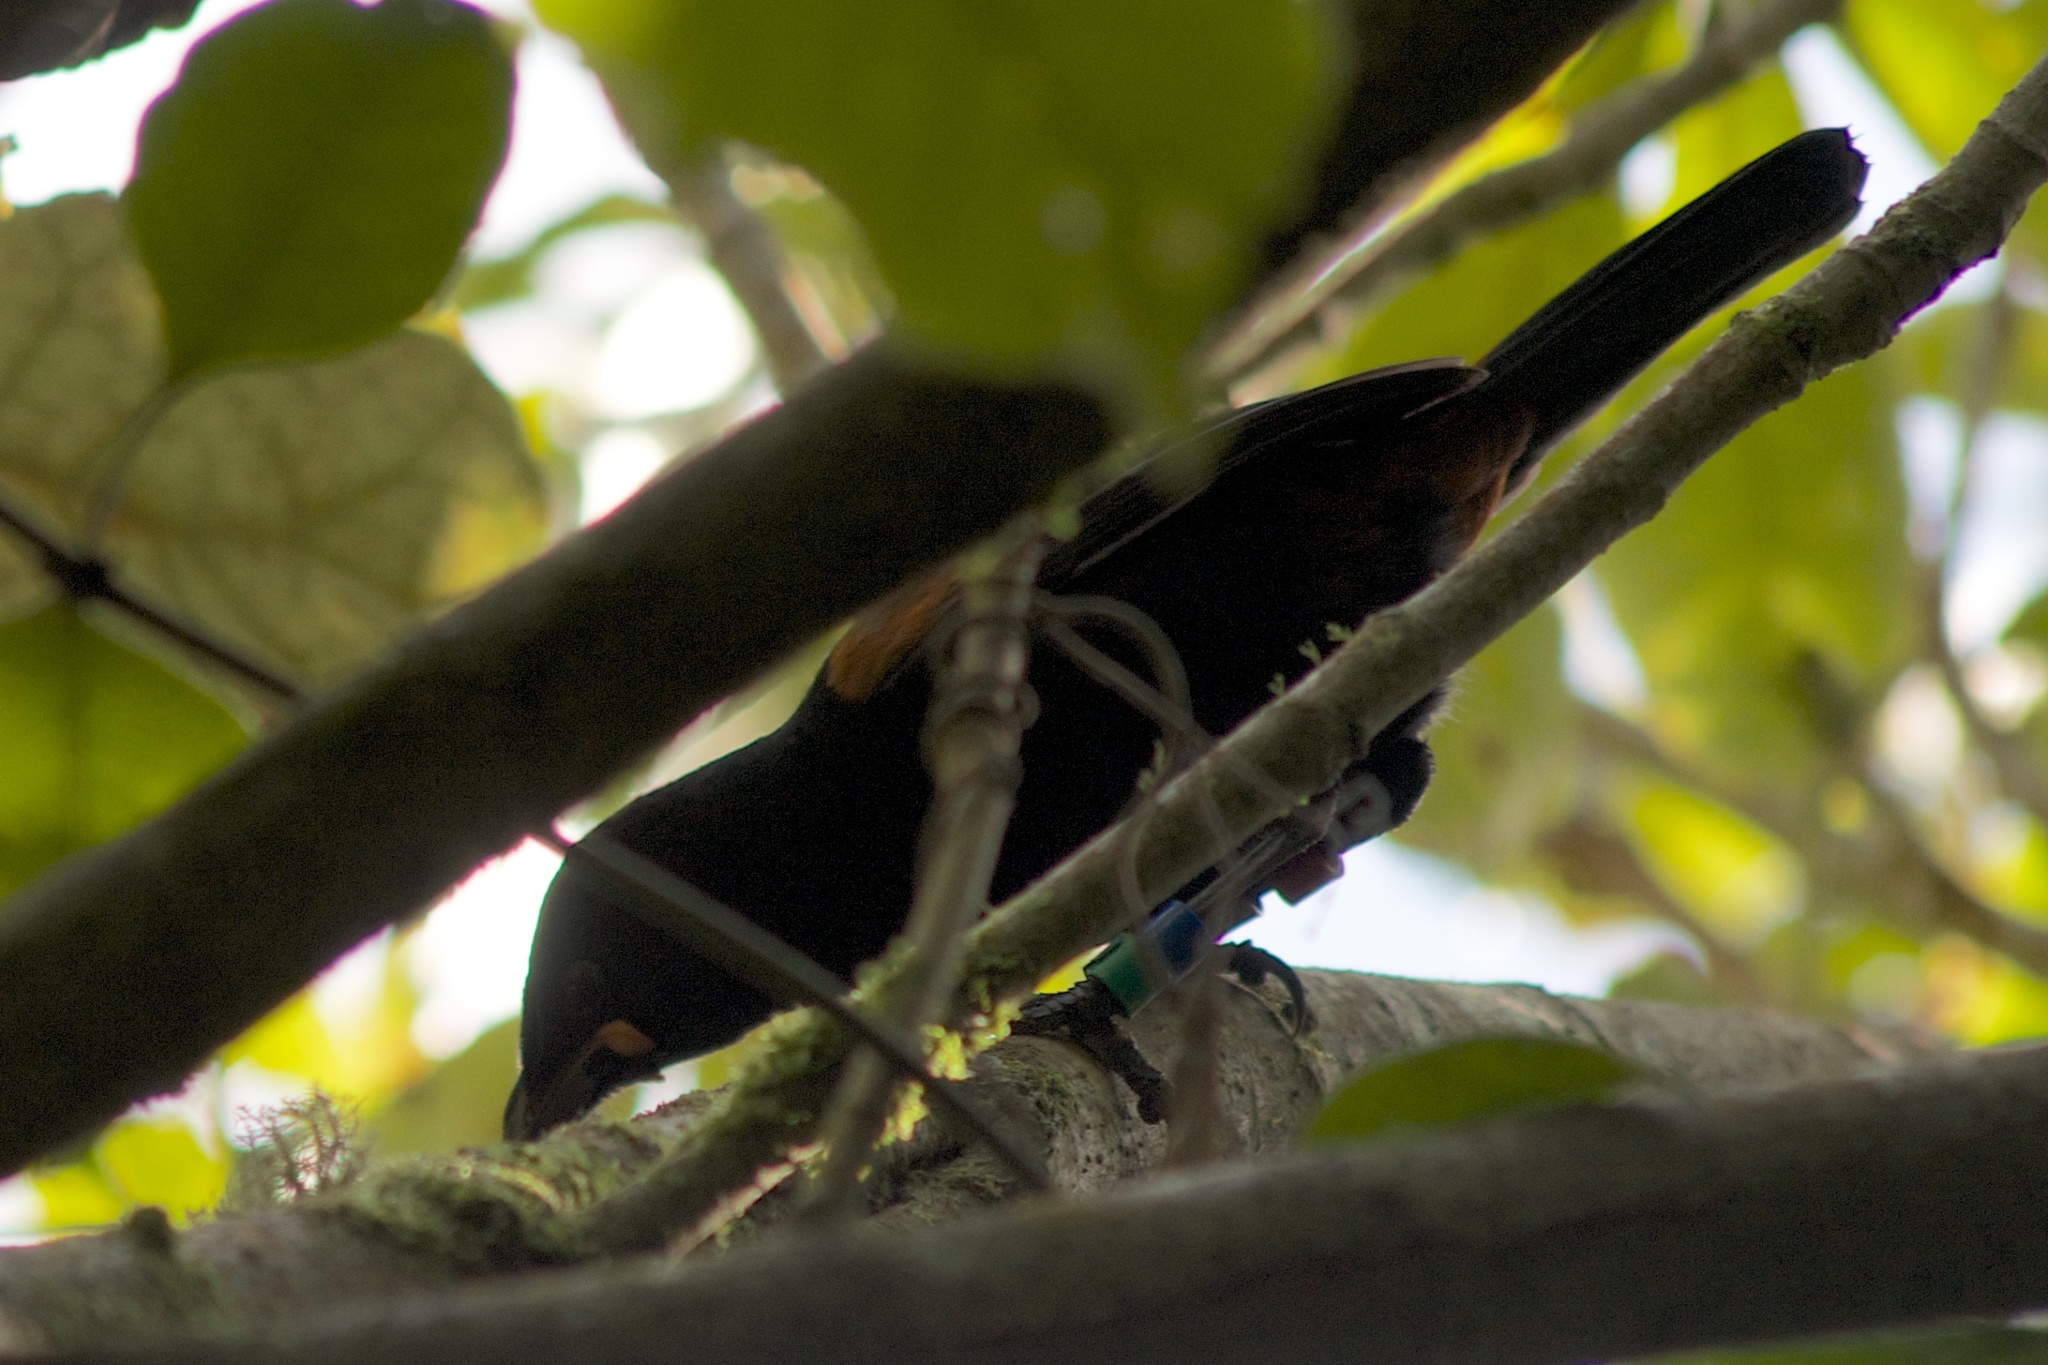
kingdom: Animalia
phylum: Chordata
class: Aves
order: Passeriformes
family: Callaeatidae
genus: Philesturnus
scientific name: Philesturnus carunculatus
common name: South island saddleback
